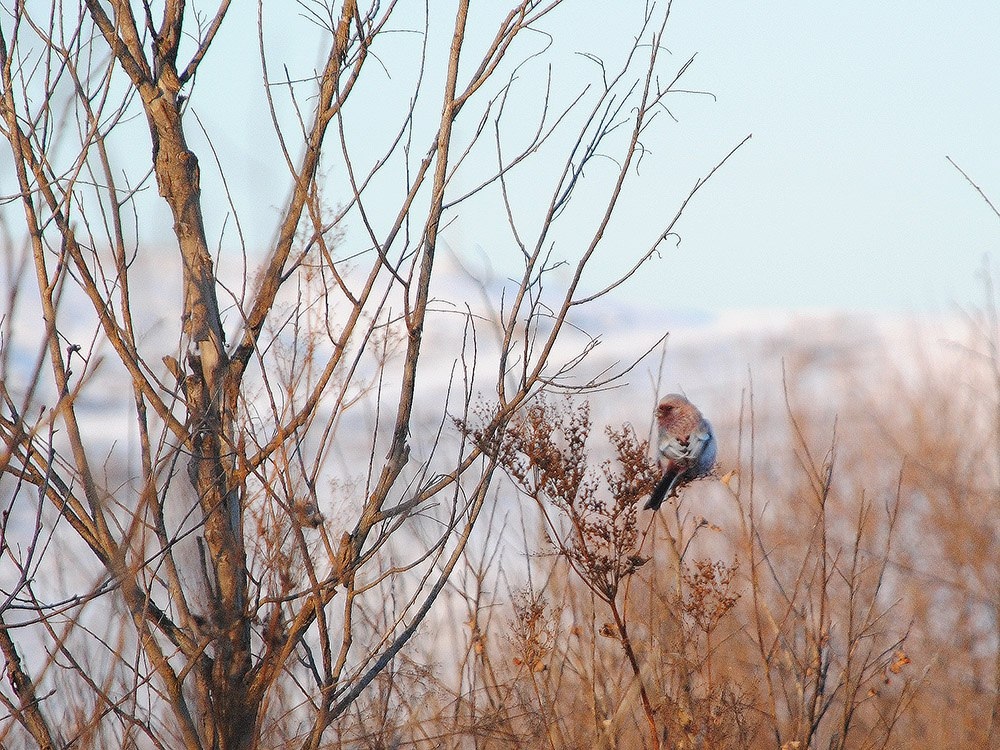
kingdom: Animalia
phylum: Chordata
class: Aves
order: Passeriformes
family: Fringillidae
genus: Carpodacus
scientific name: Carpodacus sibiricus
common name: Long-tailed rosefinch
